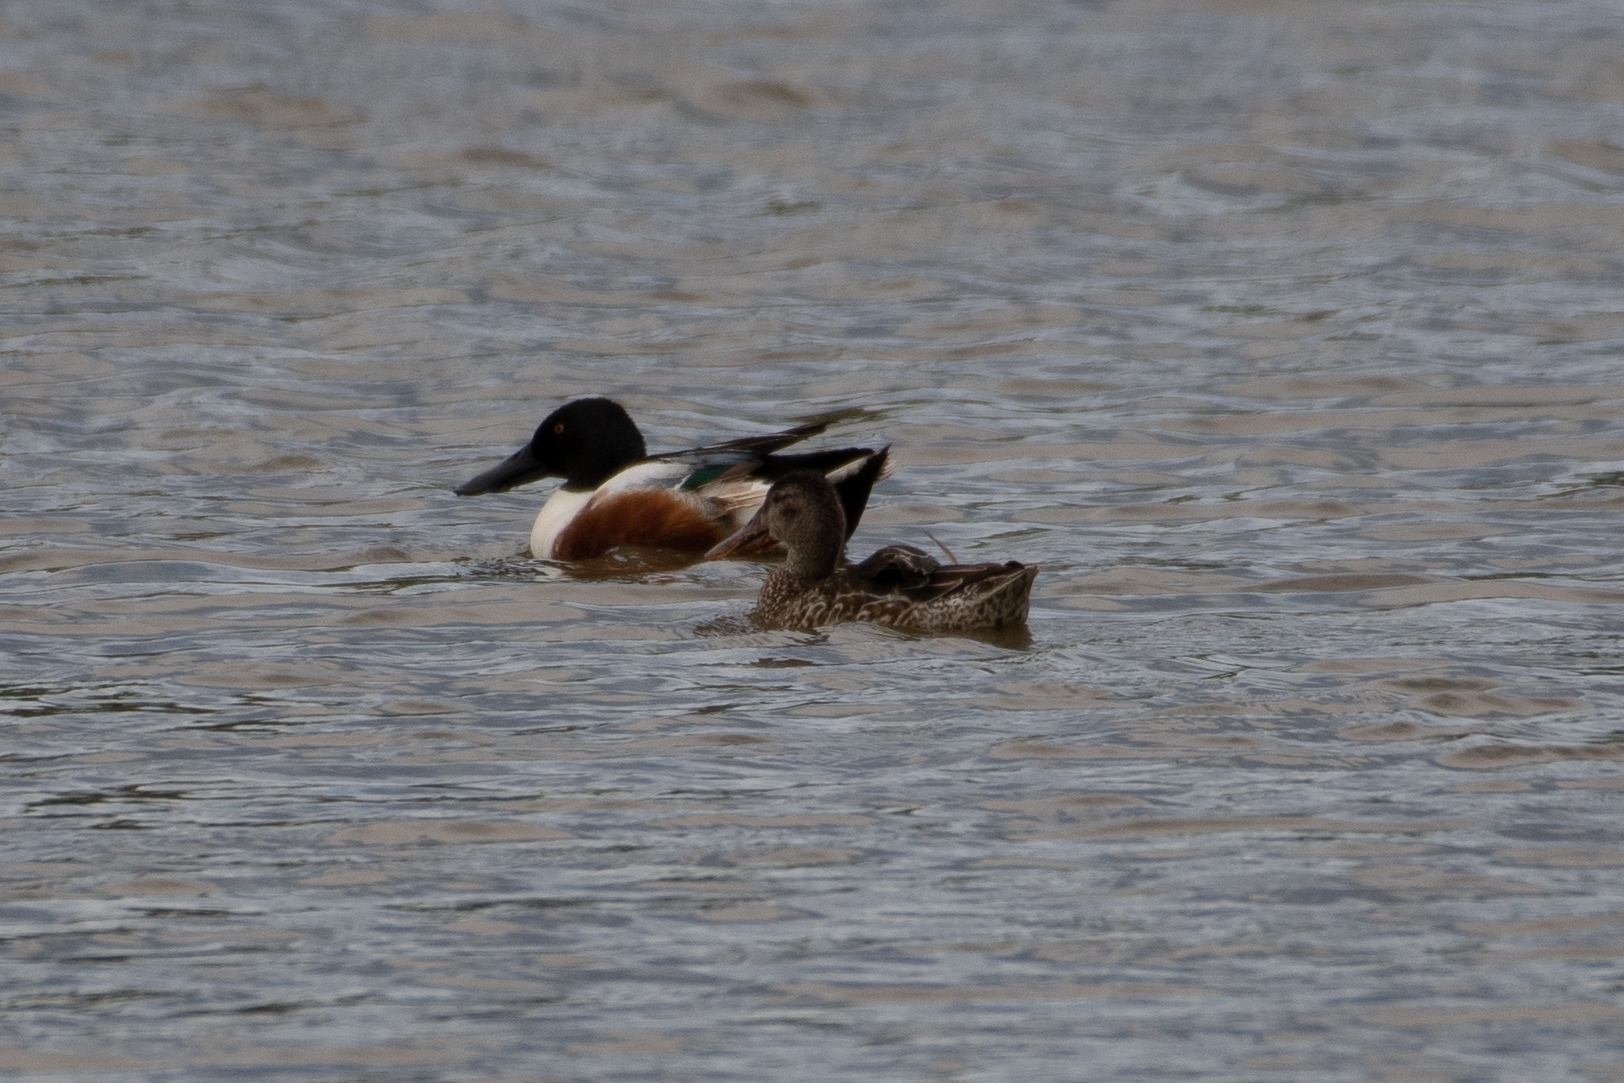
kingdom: Animalia
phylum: Chordata
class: Aves
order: Anseriformes
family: Anatidae
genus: Spatula
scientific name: Spatula clypeata
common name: Northern shoveler
